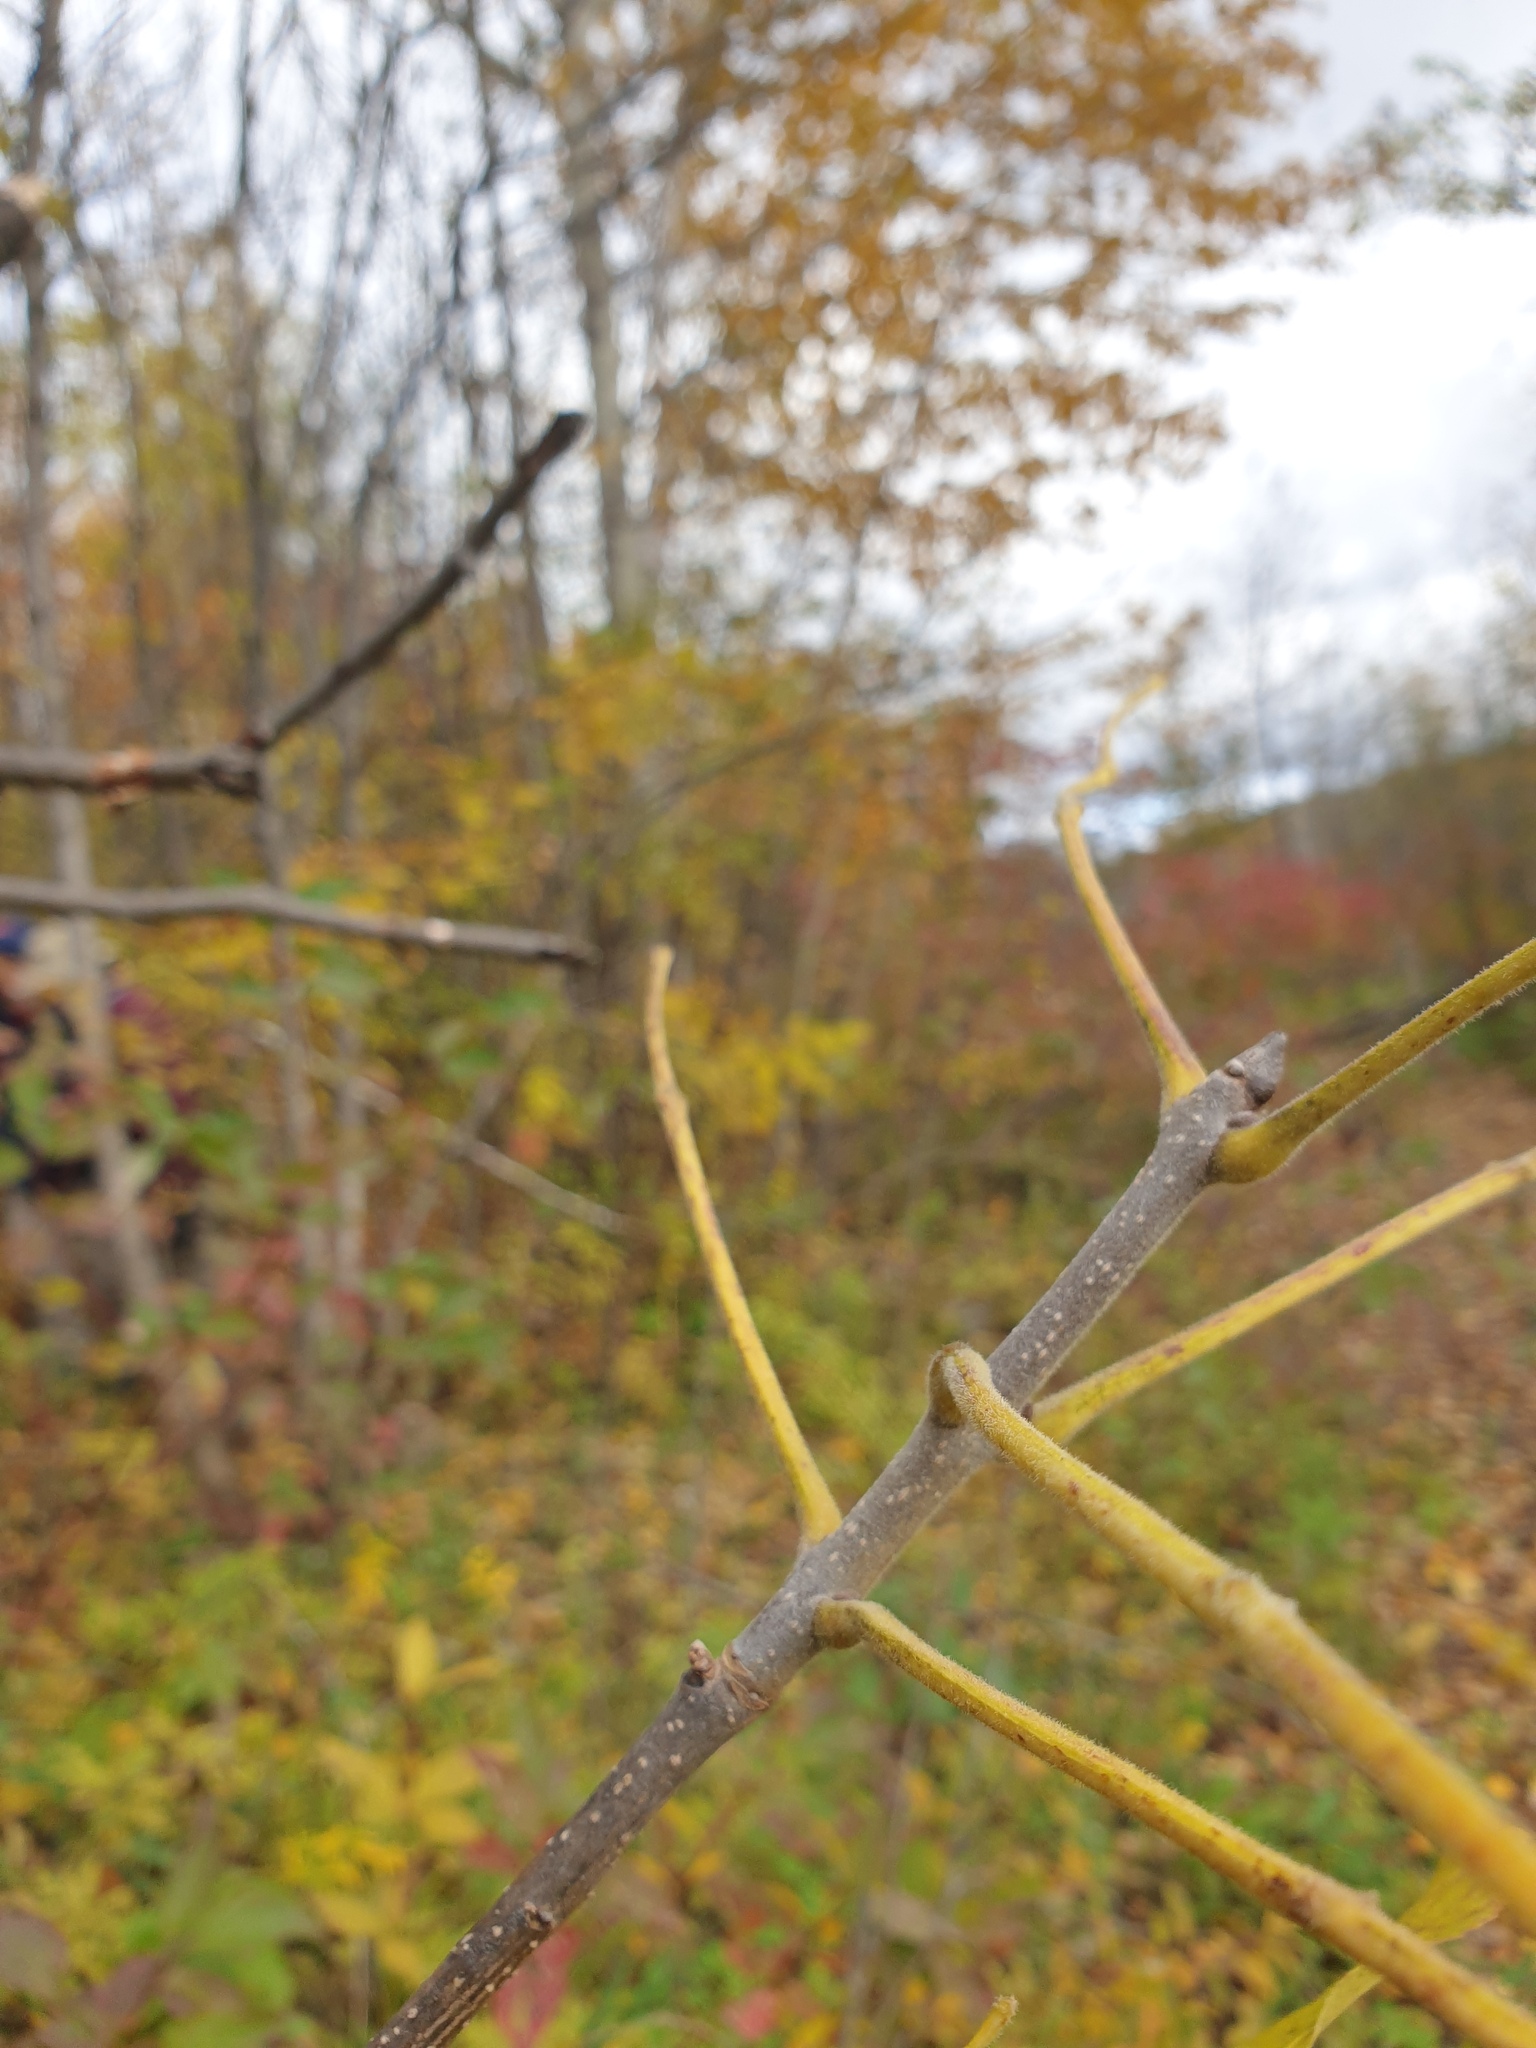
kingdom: Plantae
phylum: Tracheophyta
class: Magnoliopsida
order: Lamiales
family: Oleaceae
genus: Fraxinus
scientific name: Fraxinus pennsylvanica
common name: Green ash
